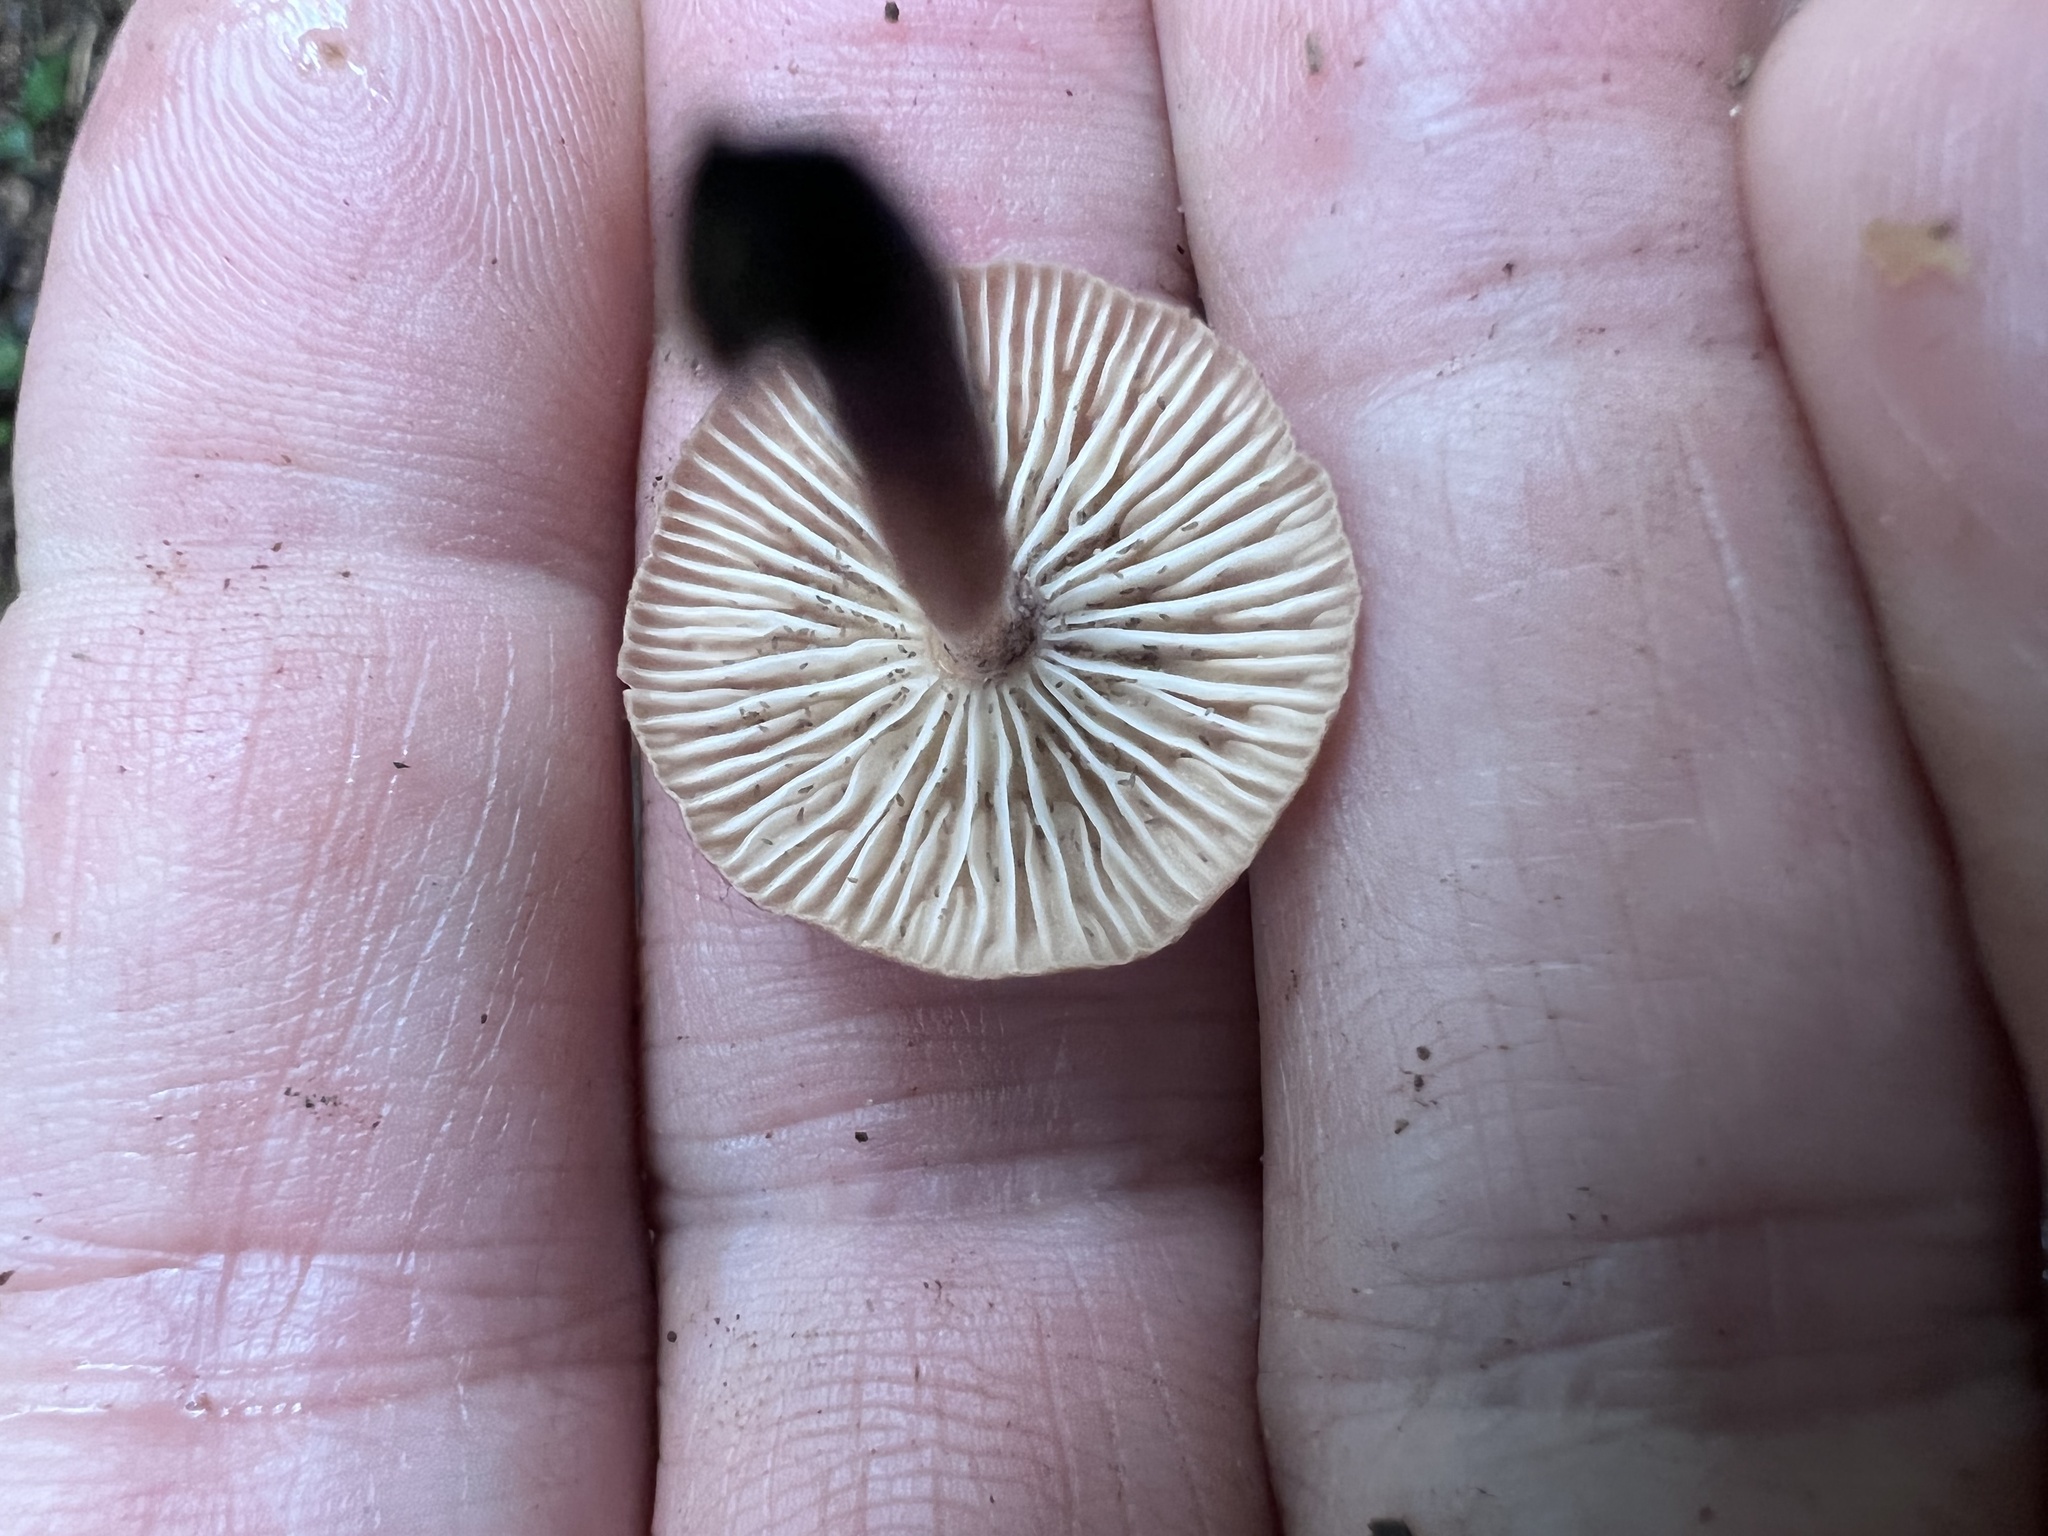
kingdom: Fungi
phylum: Basidiomycota
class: Agaricomycetes
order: Agaricales
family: Omphalotaceae
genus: Collybiopsis
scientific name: Collybiopsis subnuda
